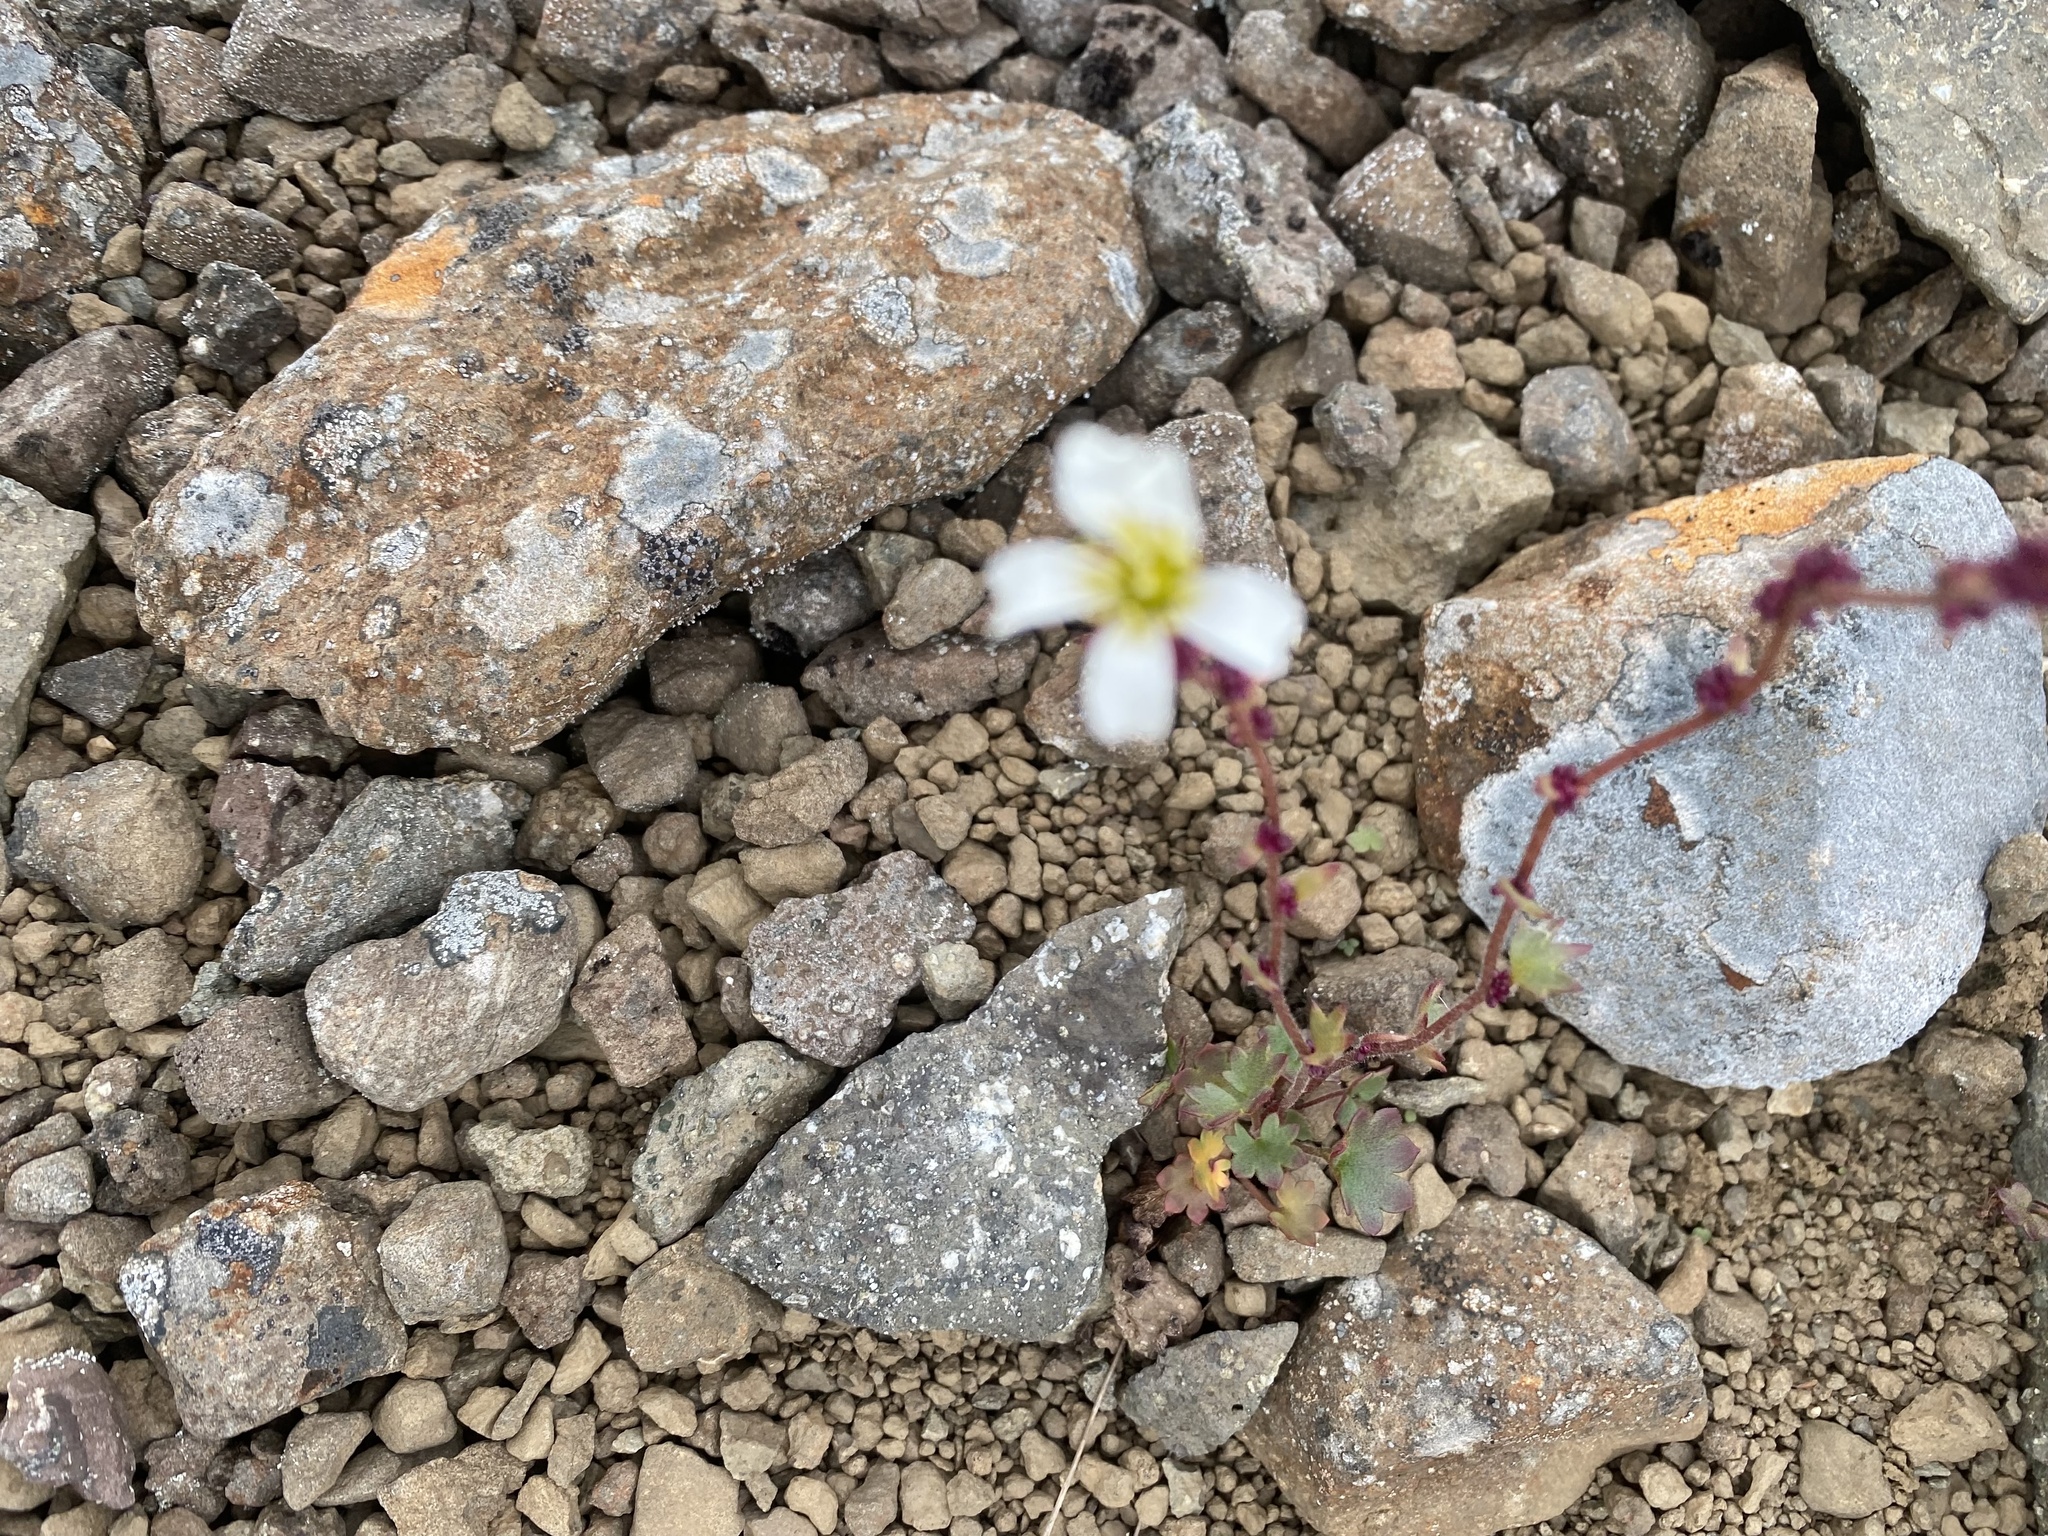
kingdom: Plantae
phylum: Tracheophyta
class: Magnoliopsida
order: Saxifragales
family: Saxifragaceae
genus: Saxifraga
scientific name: Saxifraga cernua
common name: Drooping saxifrage
